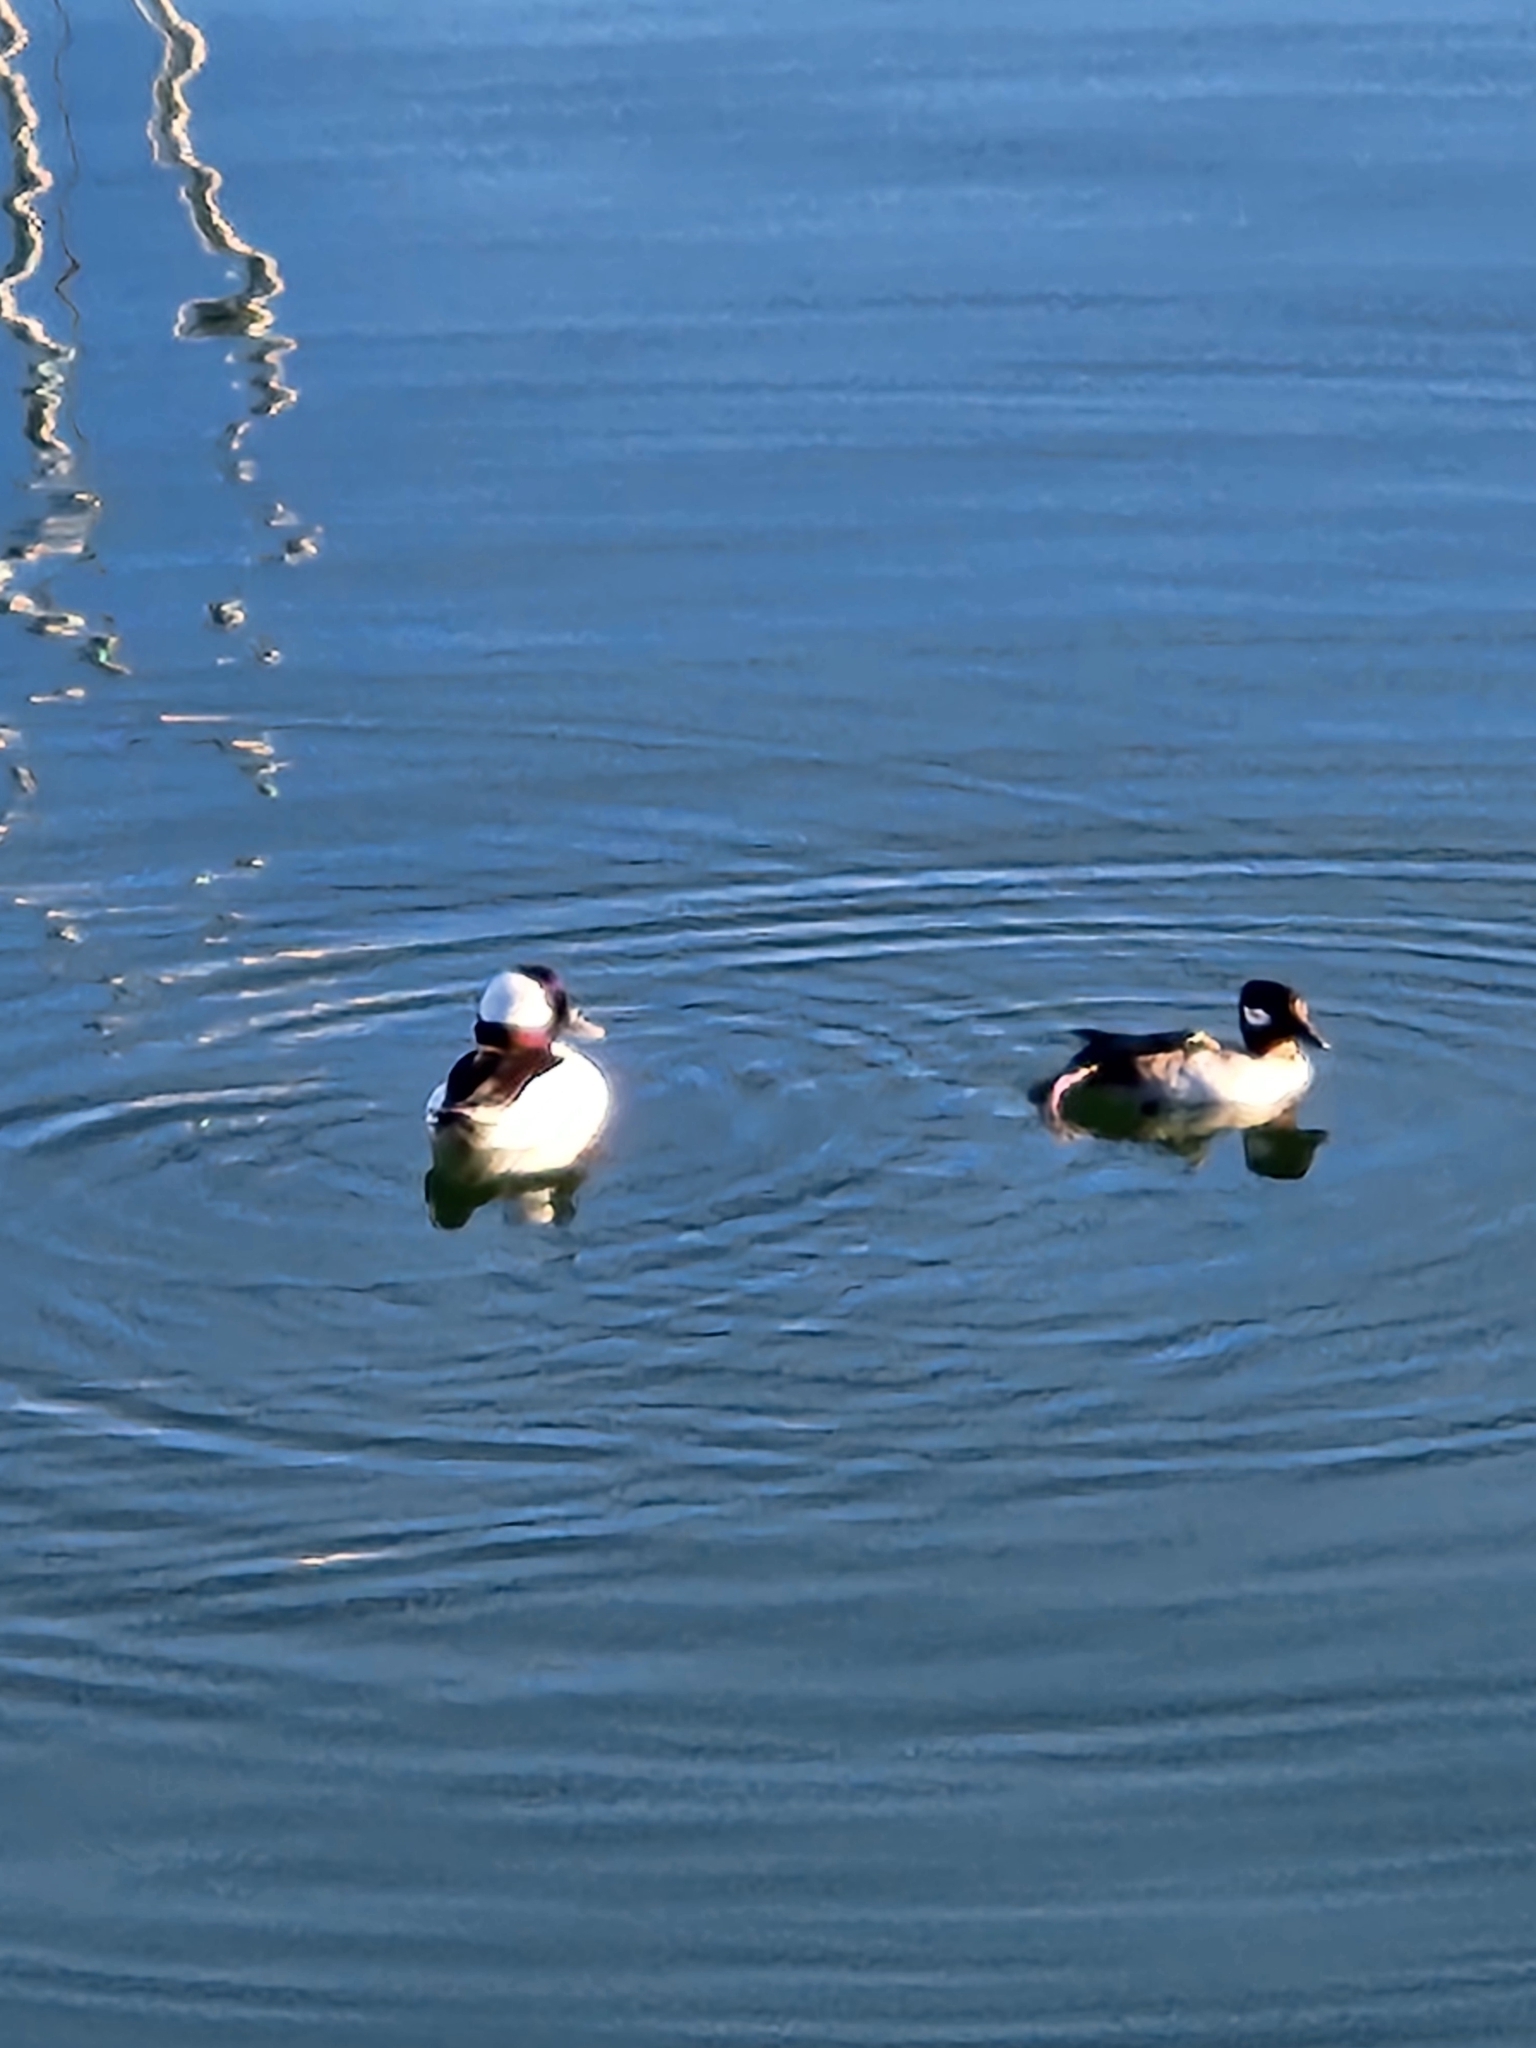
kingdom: Animalia
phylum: Chordata
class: Aves
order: Anseriformes
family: Anatidae
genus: Bucephala
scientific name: Bucephala albeola
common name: Bufflehead
